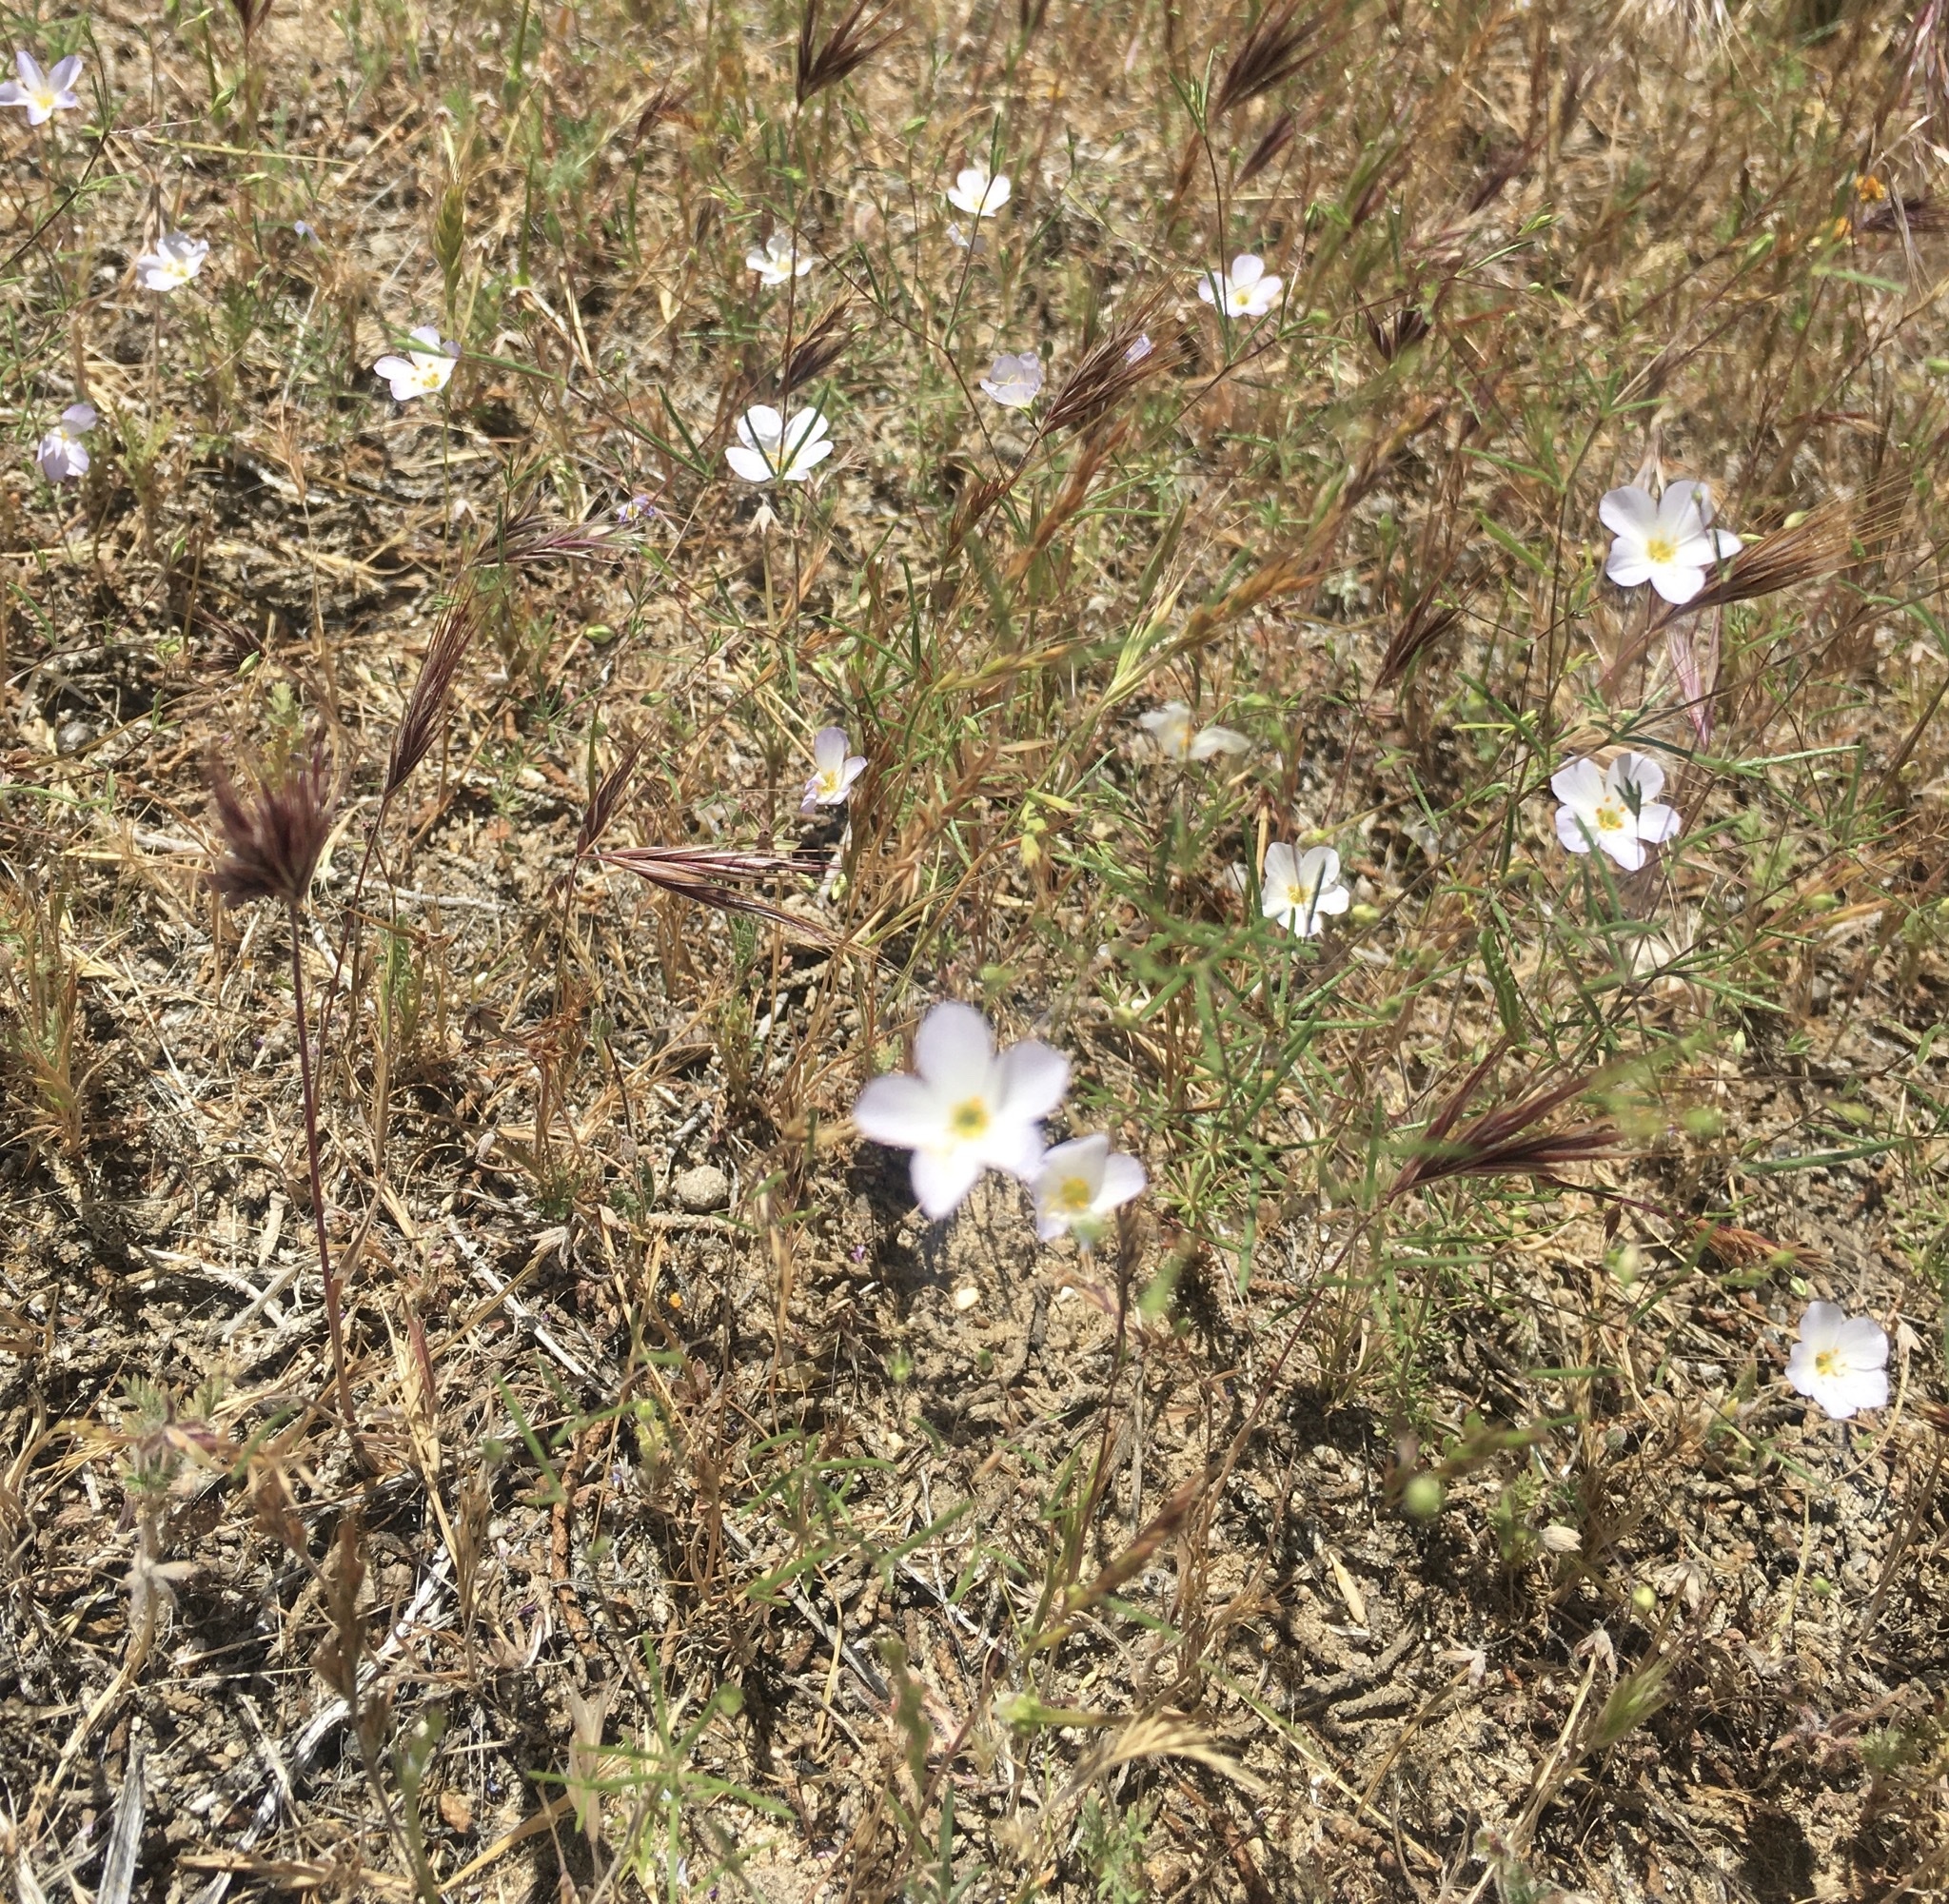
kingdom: Plantae
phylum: Tracheophyta
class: Magnoliopsida
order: Ericales
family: Polemoniaceae
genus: Leptosiphon
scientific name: Leptosiphon liniflorus
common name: Narrowflower flaxflower
